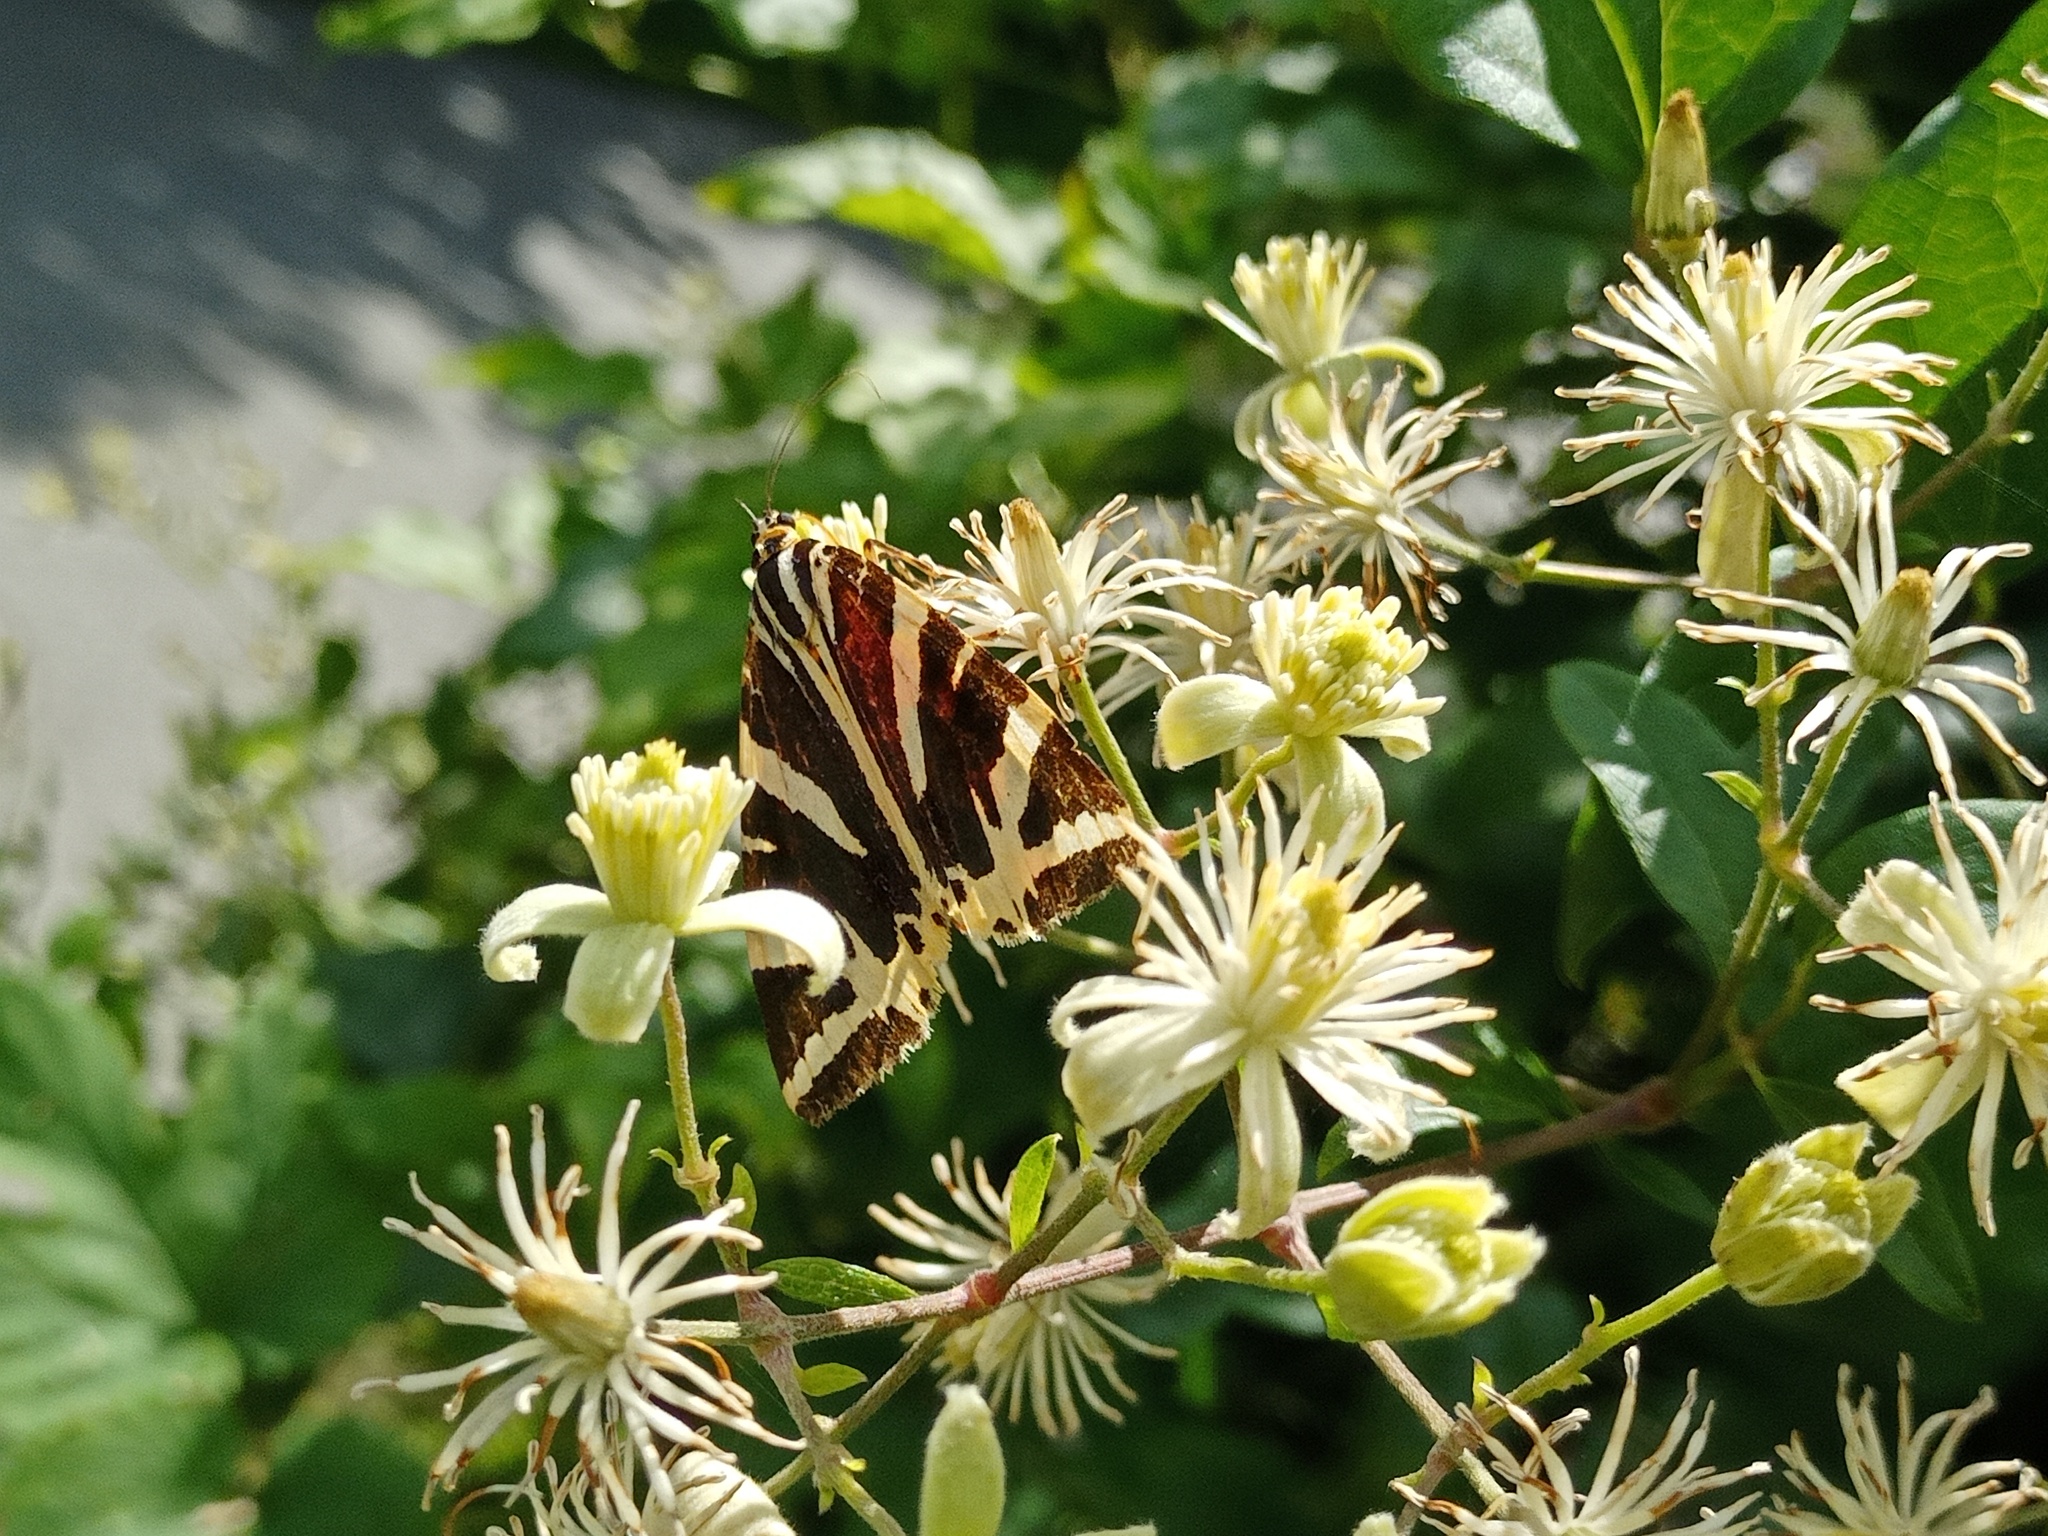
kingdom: Animalia
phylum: Arthropoda
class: Insecta
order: Lepidoptera
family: Erebidae
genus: Euplagia
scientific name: Euplagia quadripunctaria
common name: Jersey tiger
